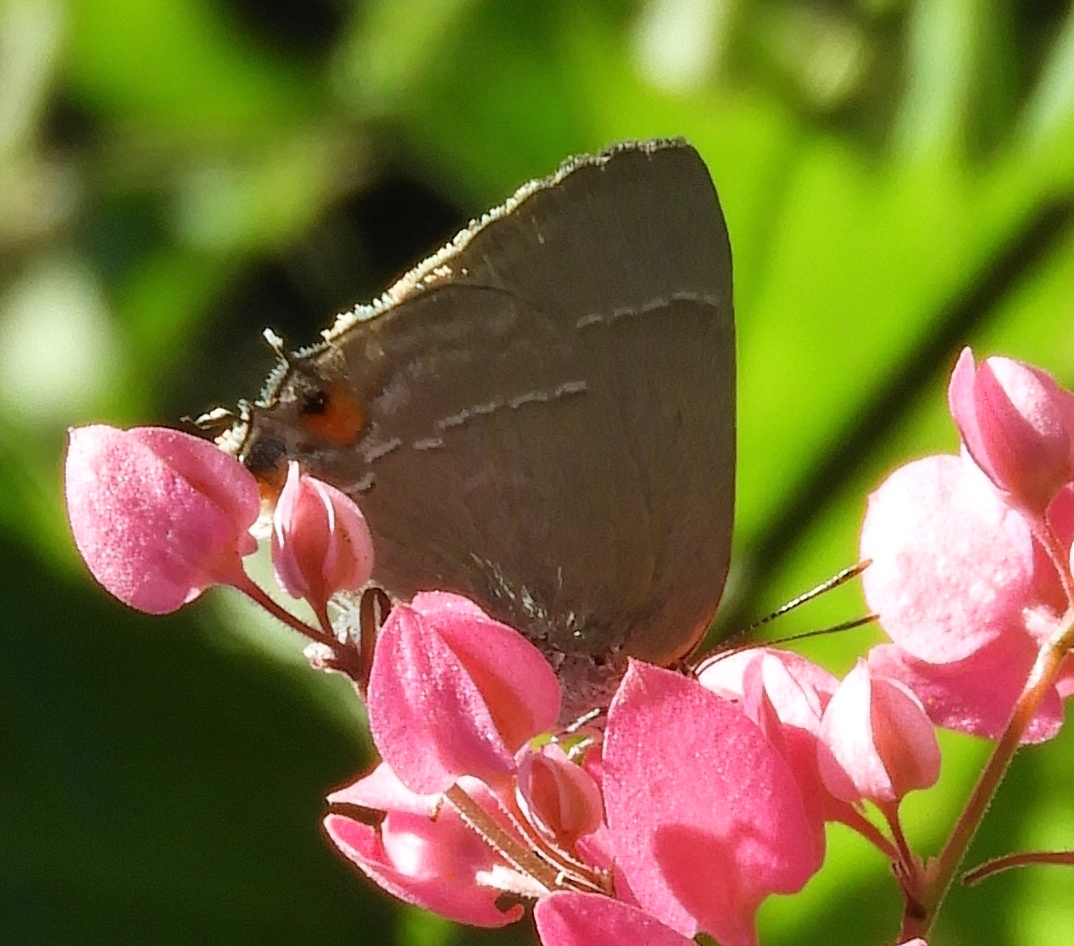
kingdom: Animalia
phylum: Arthropoda
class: Insecta
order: Lepidoptera
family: Lycaenidae
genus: Thecla
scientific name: Thecla marius
